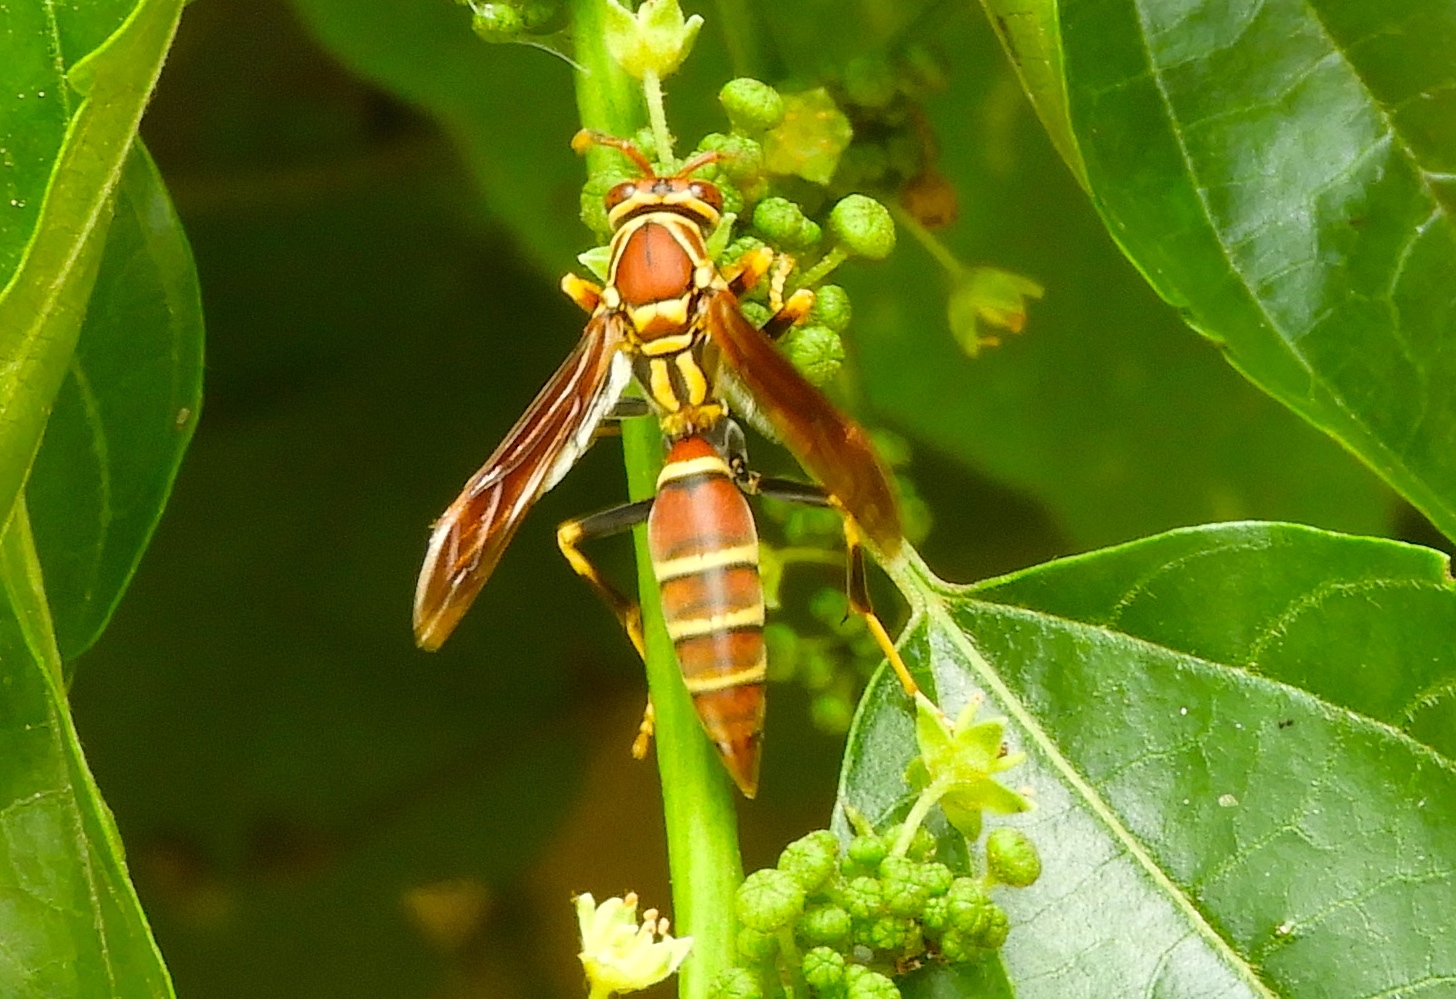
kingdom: Animalia
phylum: Arthropoda
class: Insecta
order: Hymenoptera
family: Eumenidae
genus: Polistes
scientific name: Polistes instabilis
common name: Unstable paper wasp
